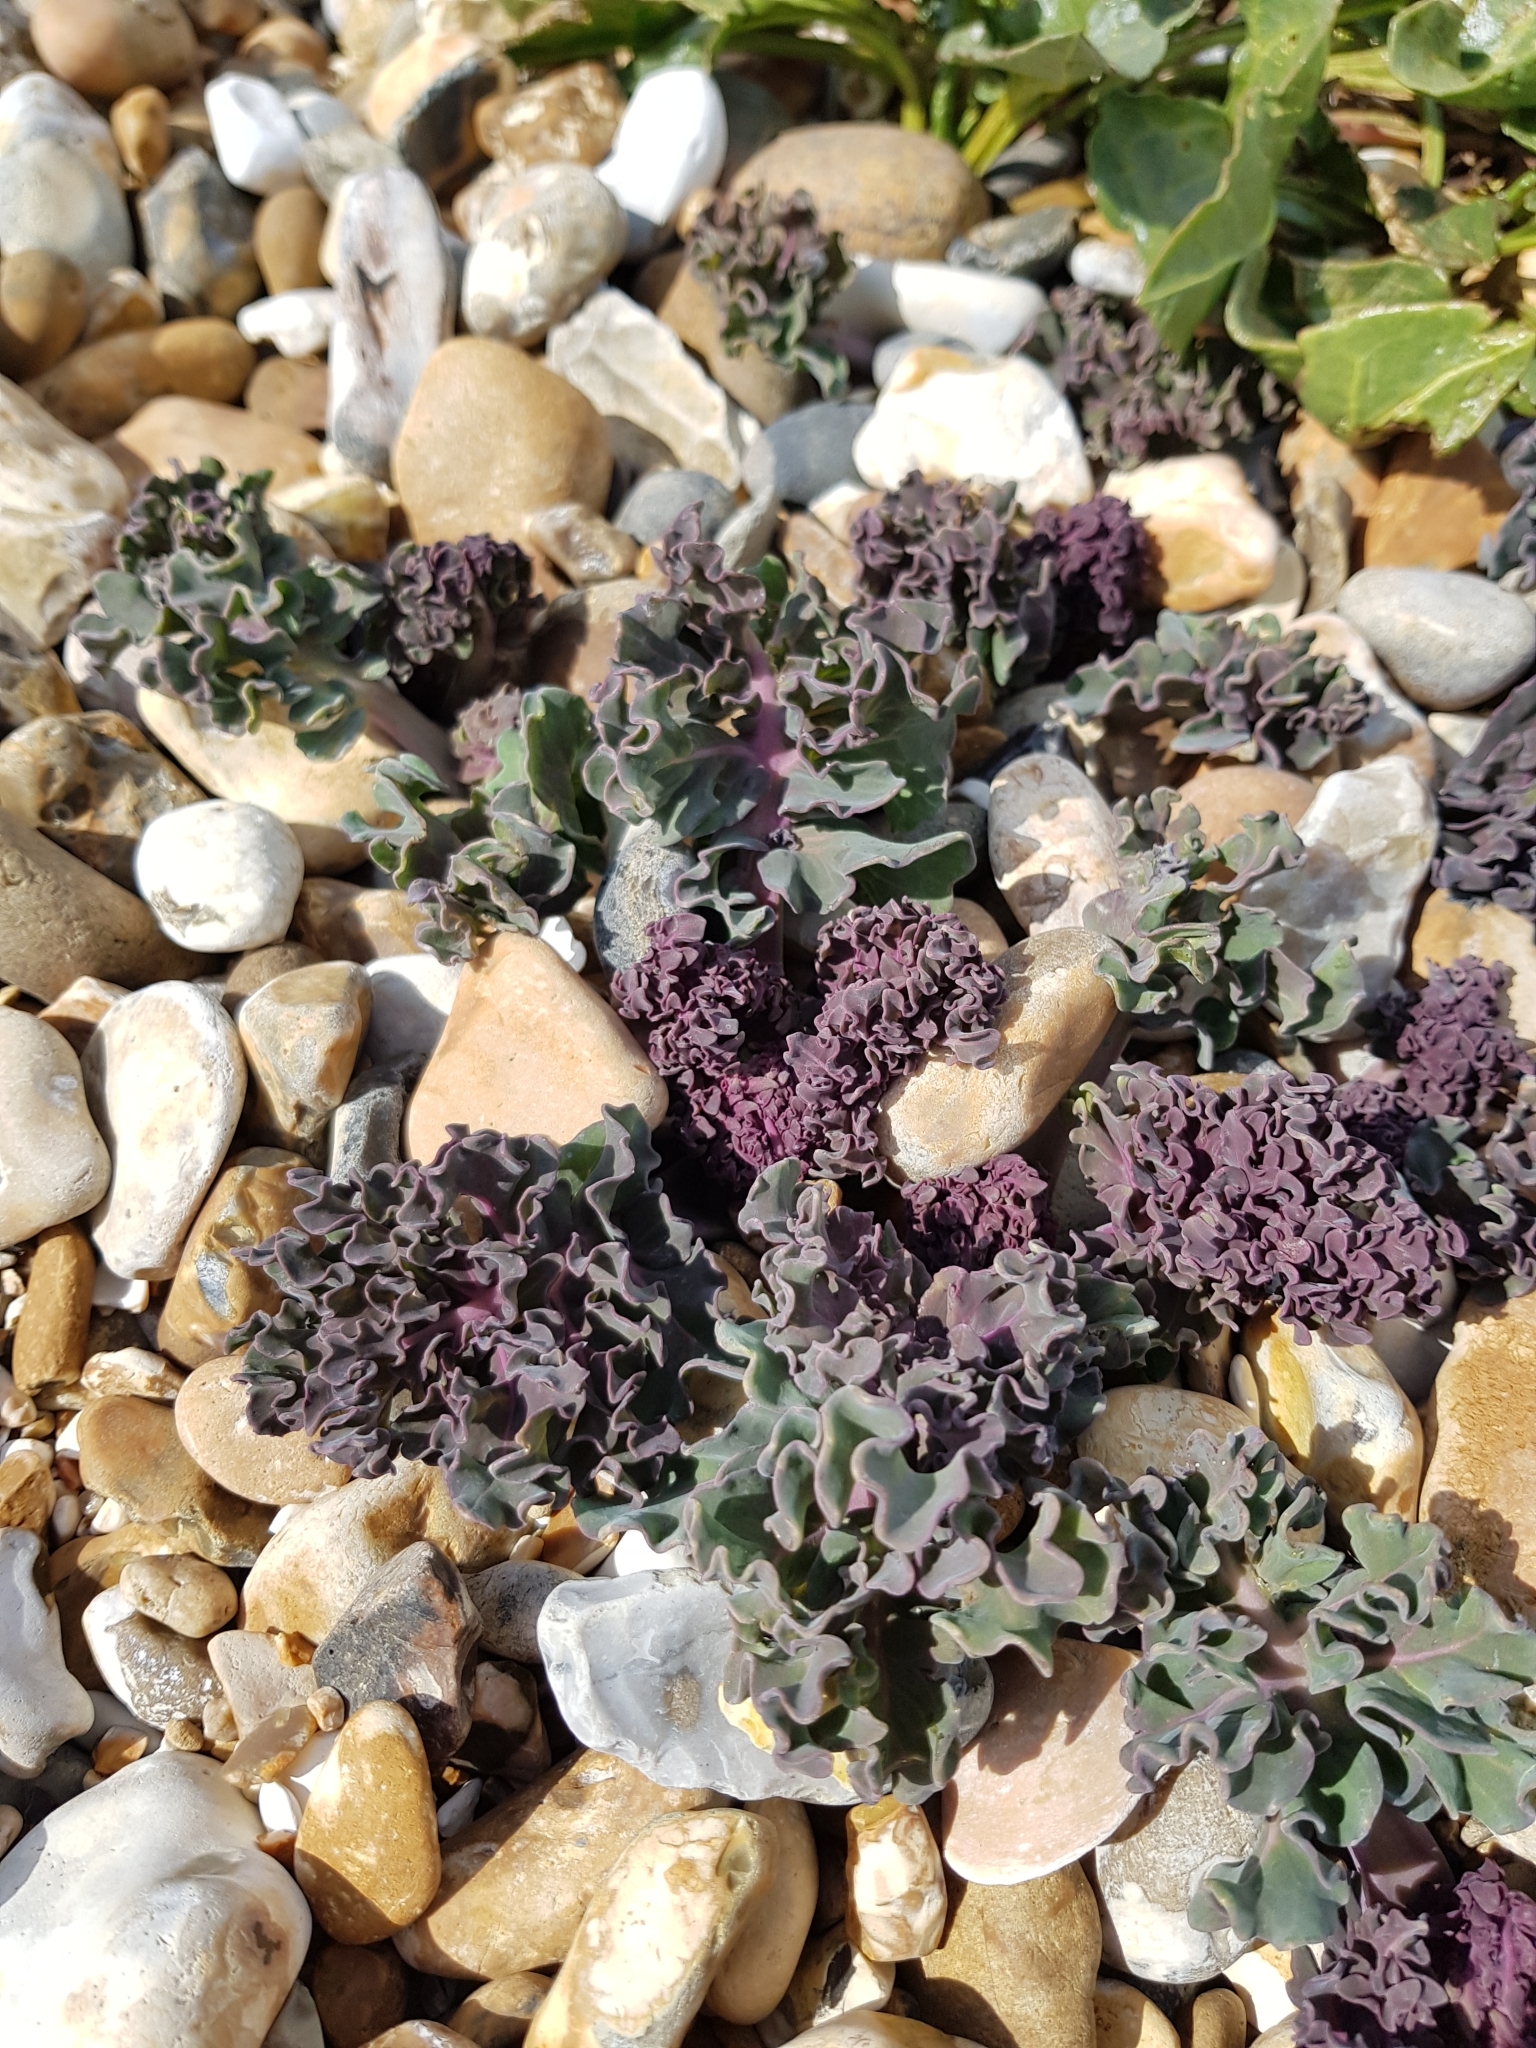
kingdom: Plantae
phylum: Tracheophyta
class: Magnoliopsida
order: Brassicales
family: Brassicaceae
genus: Crambe
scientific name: Crambe maritima
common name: Sea-kale
